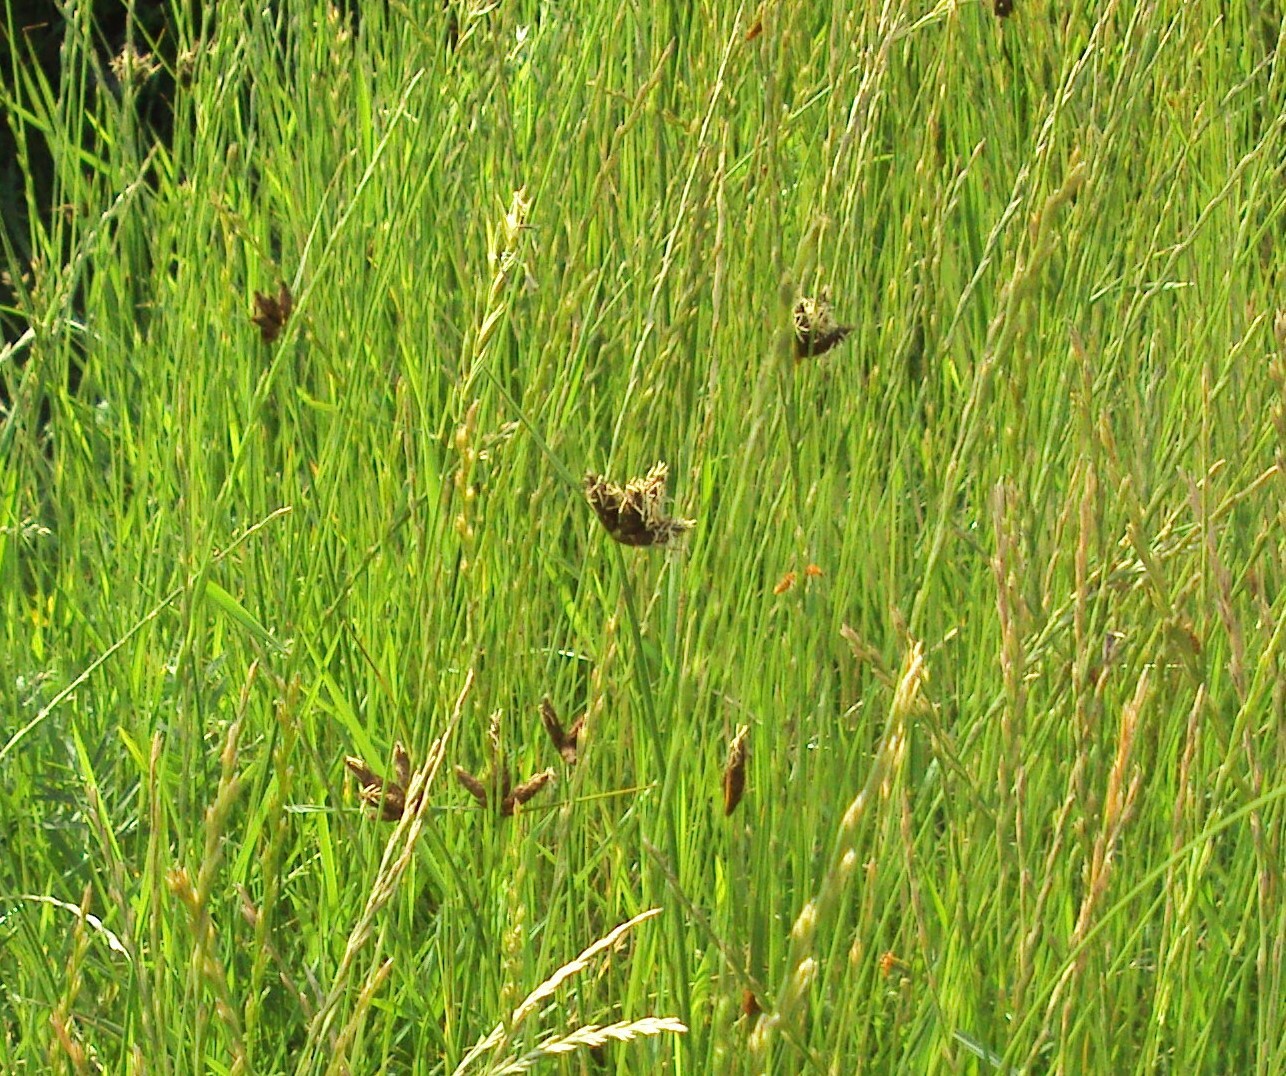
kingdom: Plantae
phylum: Tracheophyta
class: Liliopsida
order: Poales
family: Cyperaceae
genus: Bolboschoenus
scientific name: Bolboschoenus maritimus
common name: Sea club-rush
